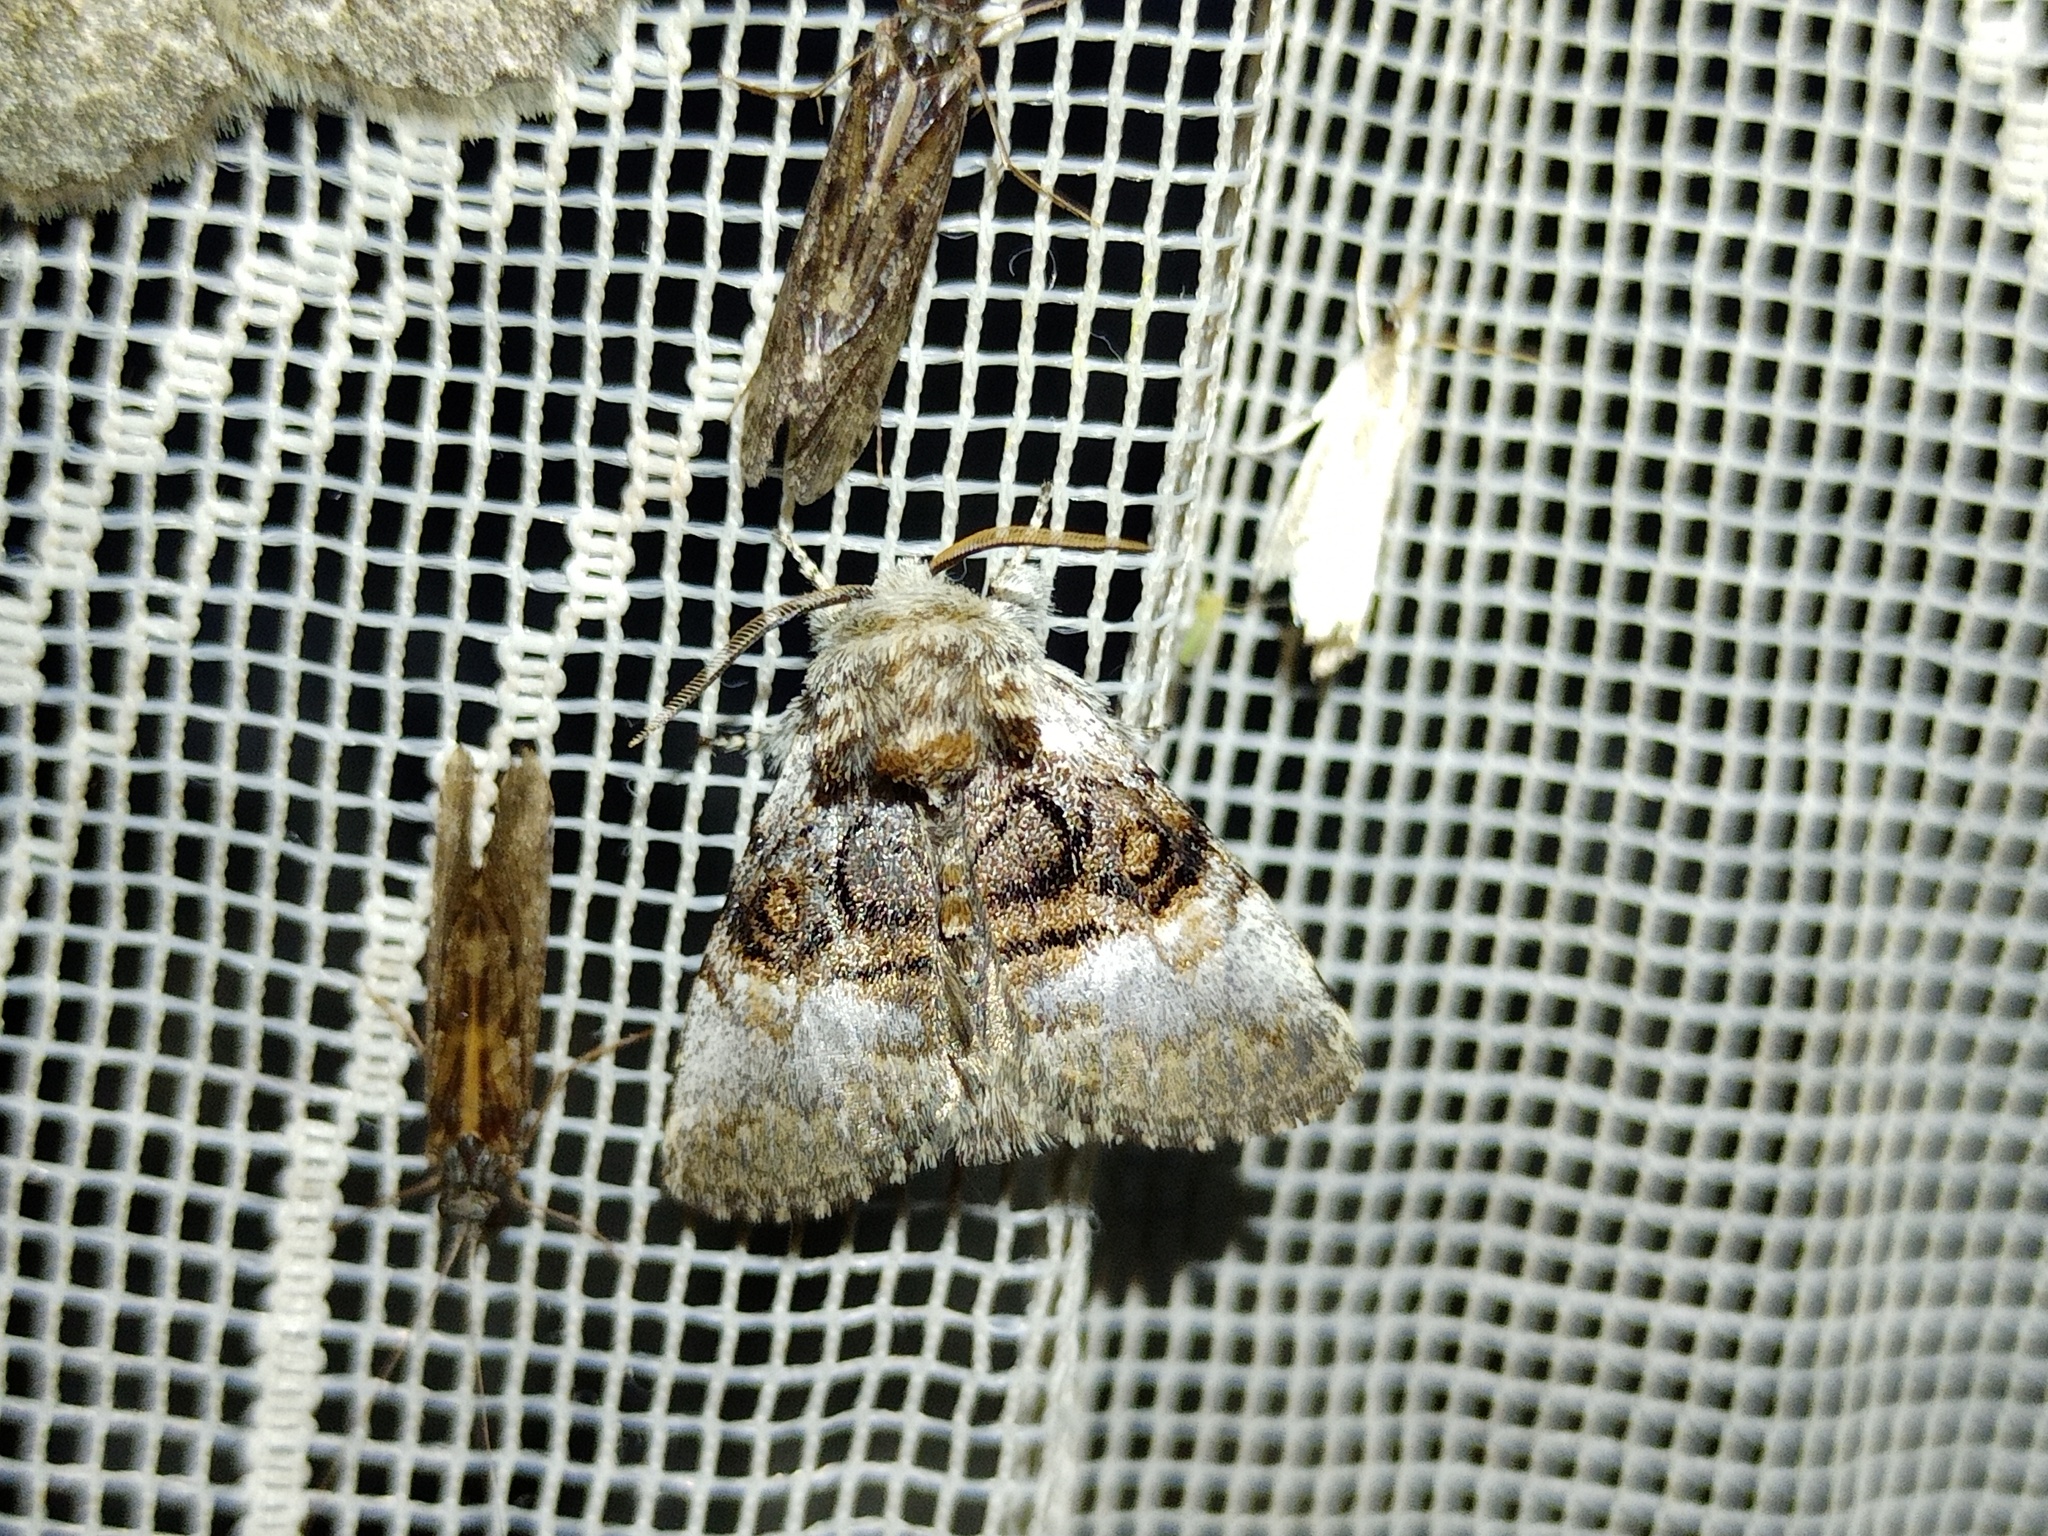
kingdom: Animalia
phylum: Arthropoda
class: Insecta
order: Lepidoptera
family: Noctuidae
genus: Colocasia
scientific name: Colocasia coryli
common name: Nut-tree tussock
